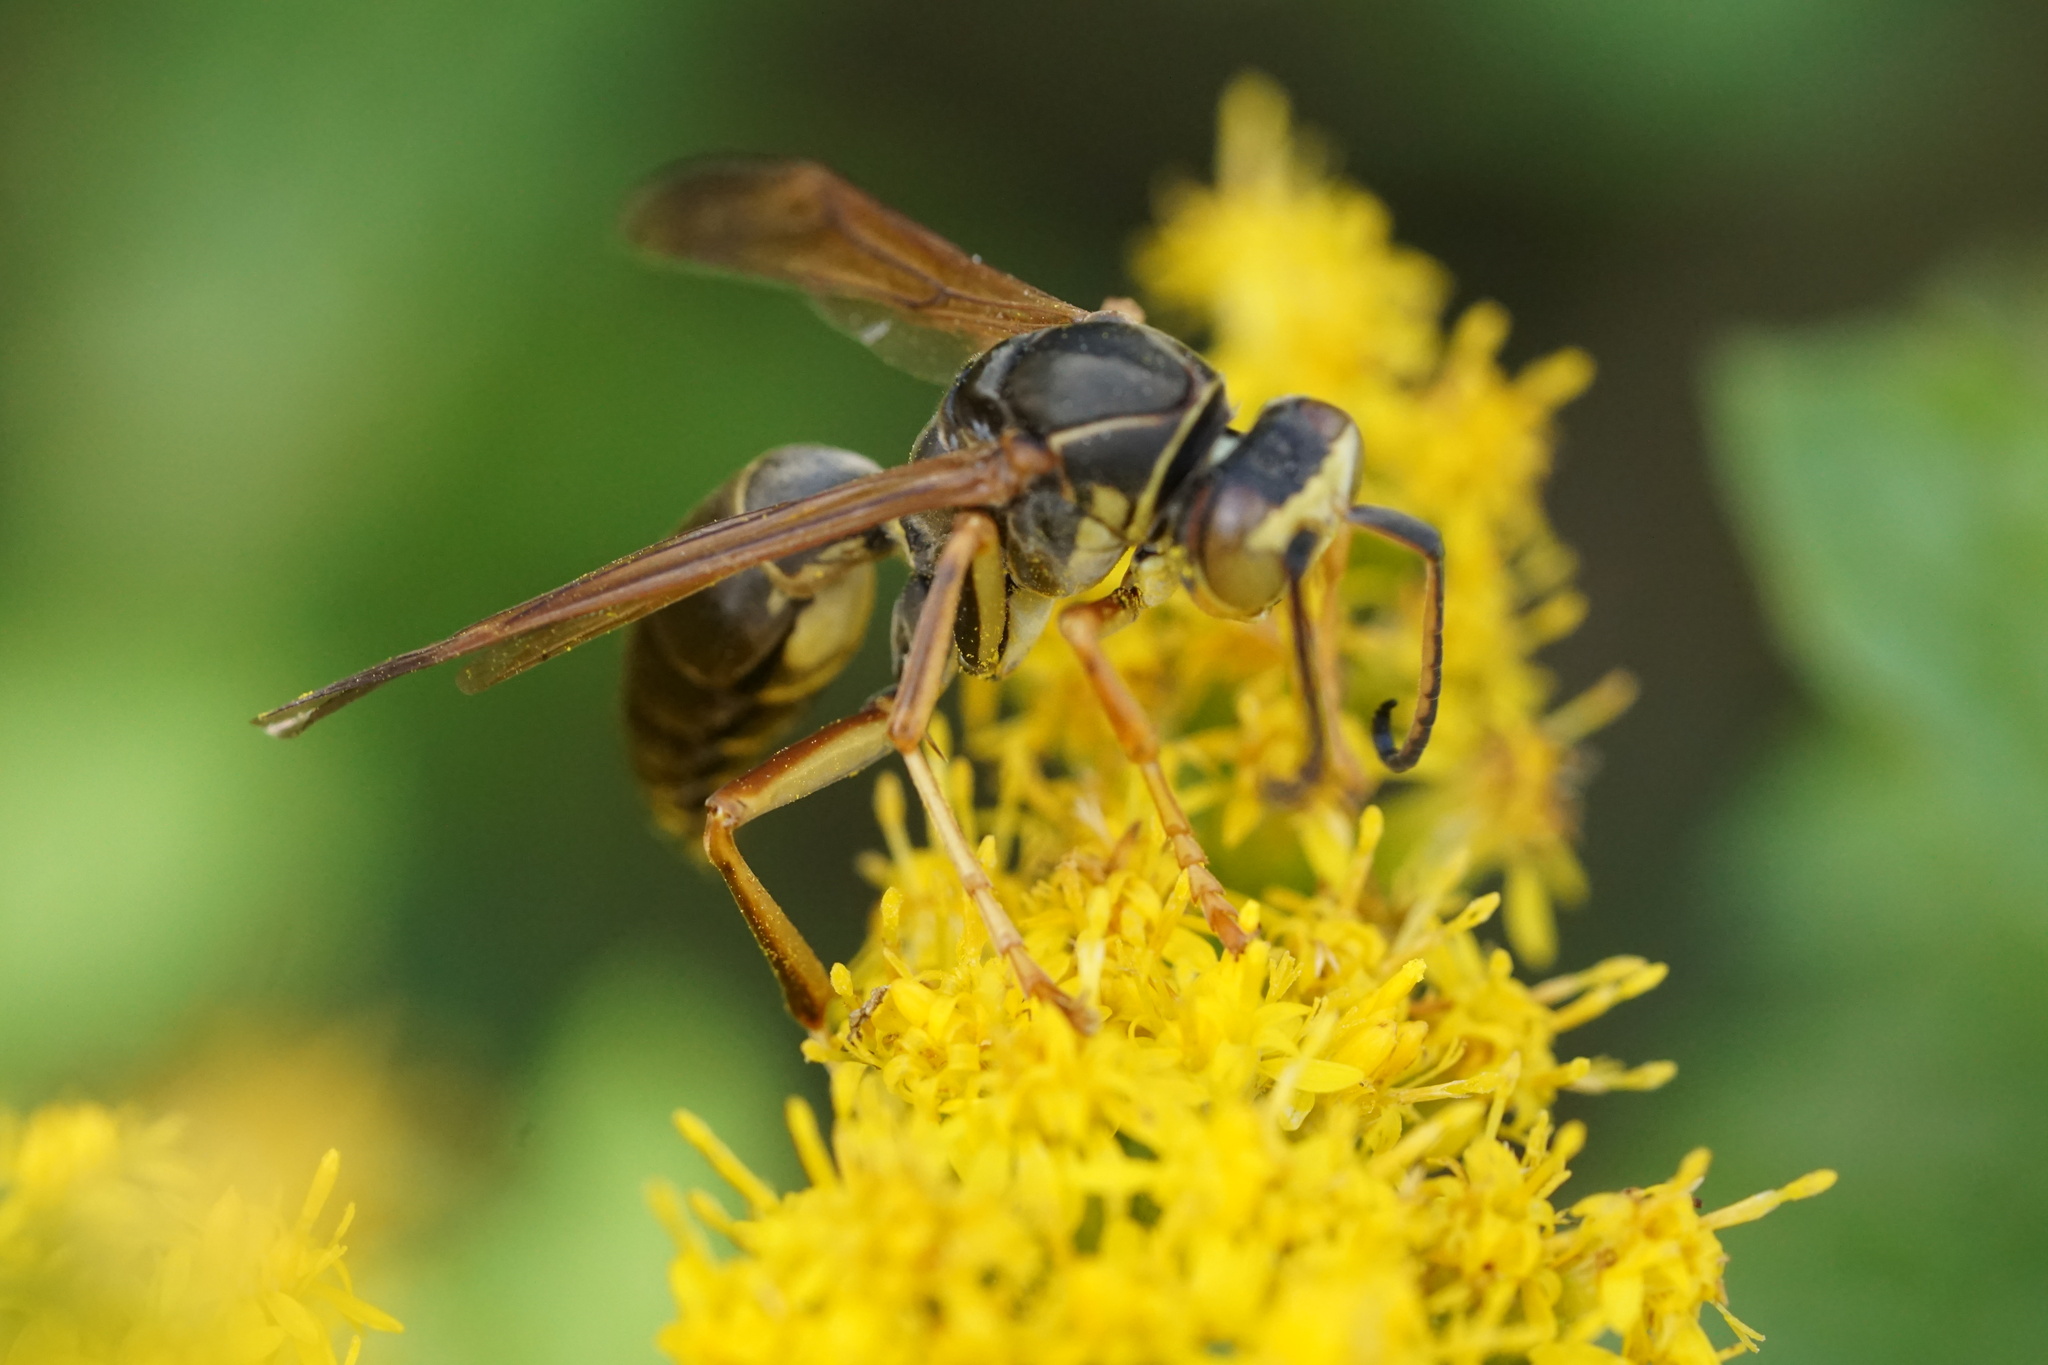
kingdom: Animalia
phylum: Arthropoda
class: Insecta
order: Hymenoptera
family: Eumenidae
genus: Polistes
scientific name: Polistes fuscatus
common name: Dark paper wasp
